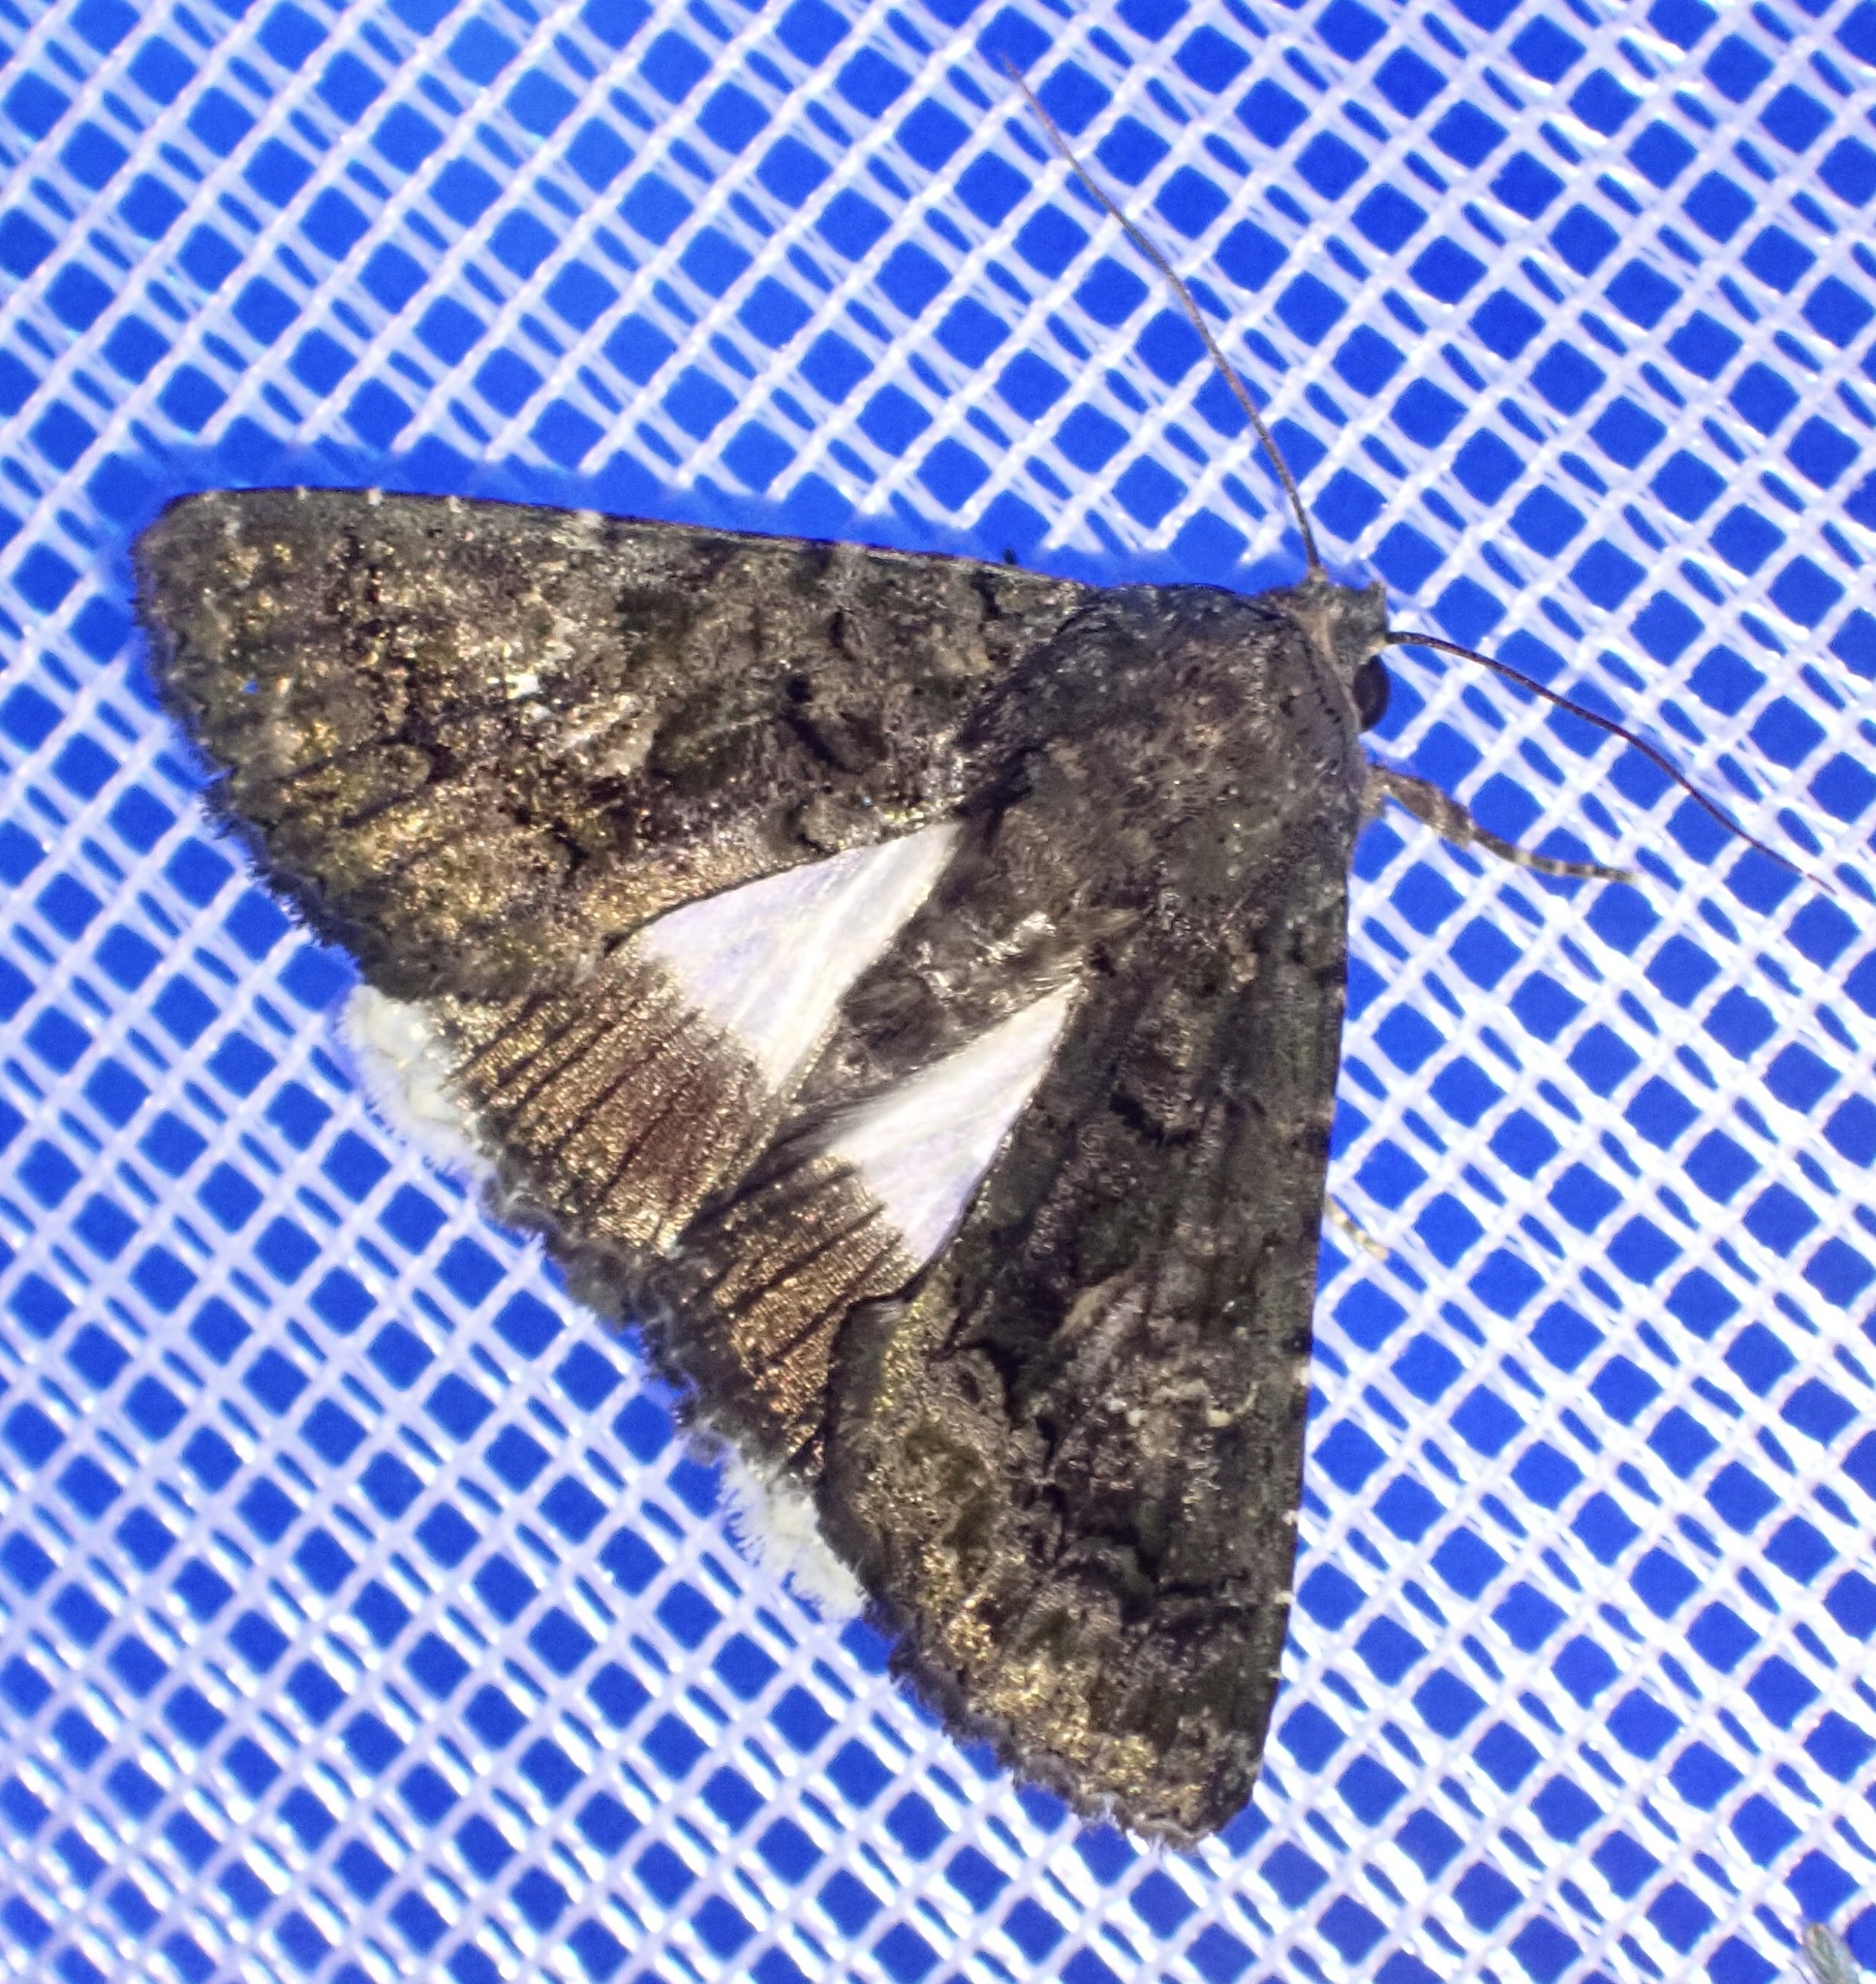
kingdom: Animalia
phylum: Arthropoda
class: Insecta
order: Lepidoptera
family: Noctuidae
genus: Aedia
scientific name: Aedia leucomelas
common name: Sorcerer
